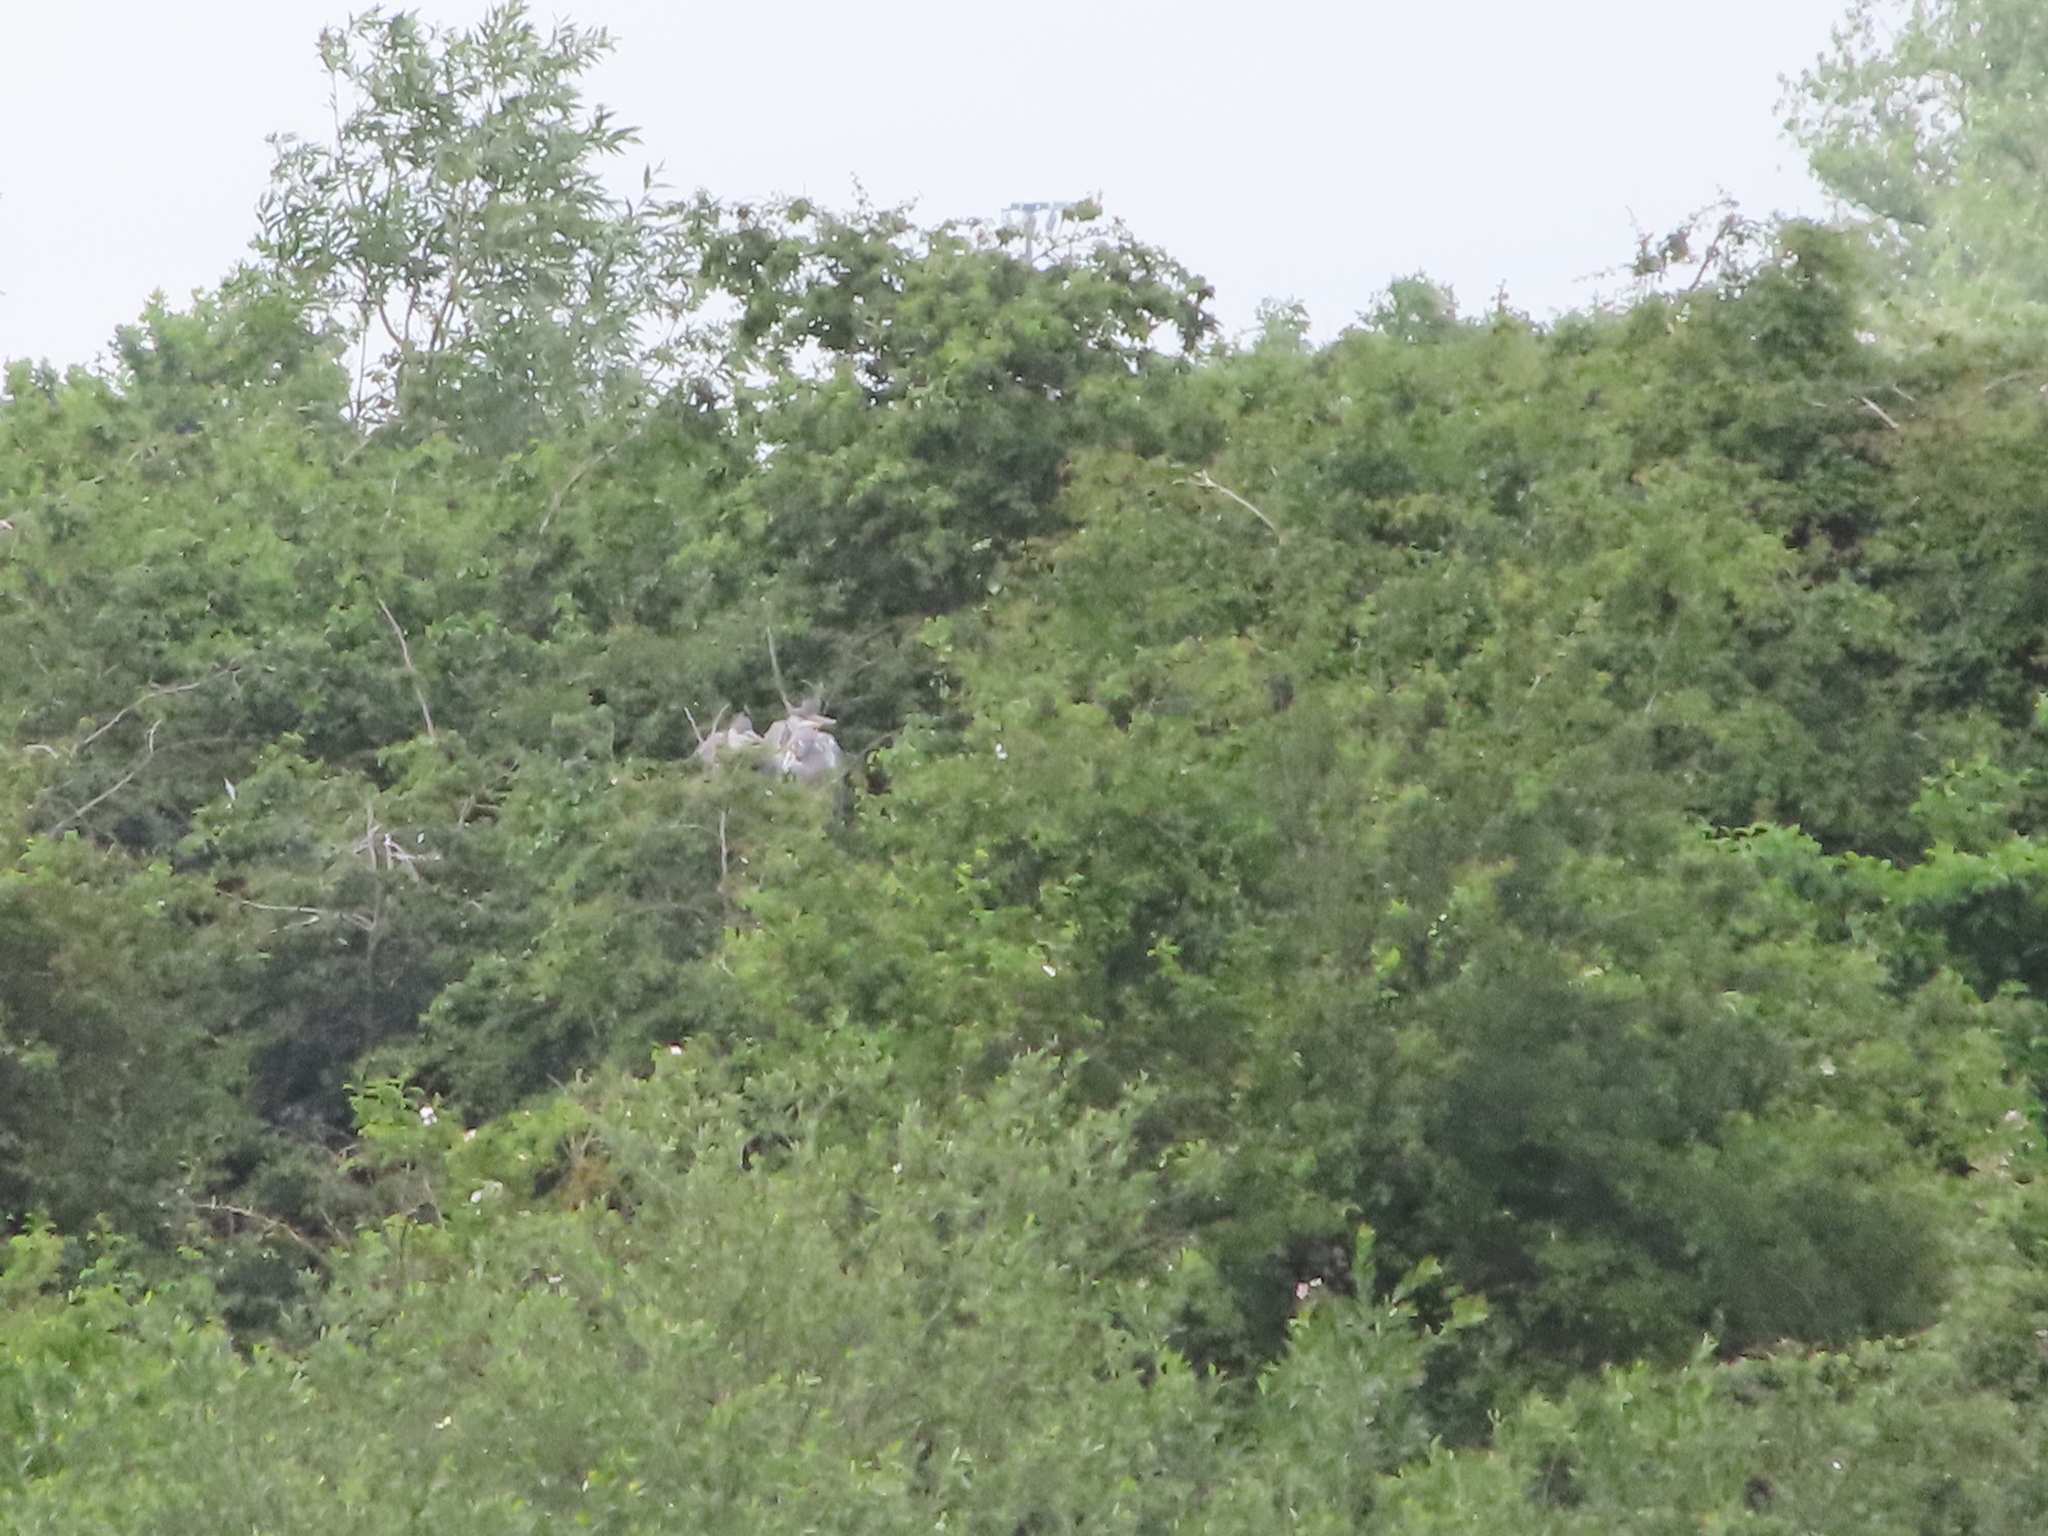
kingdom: Animalia
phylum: Chordata
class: Aves
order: Pelecaniformes
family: Ardeidae
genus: Ardea
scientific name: Ardea cinerea
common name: Grey heron
